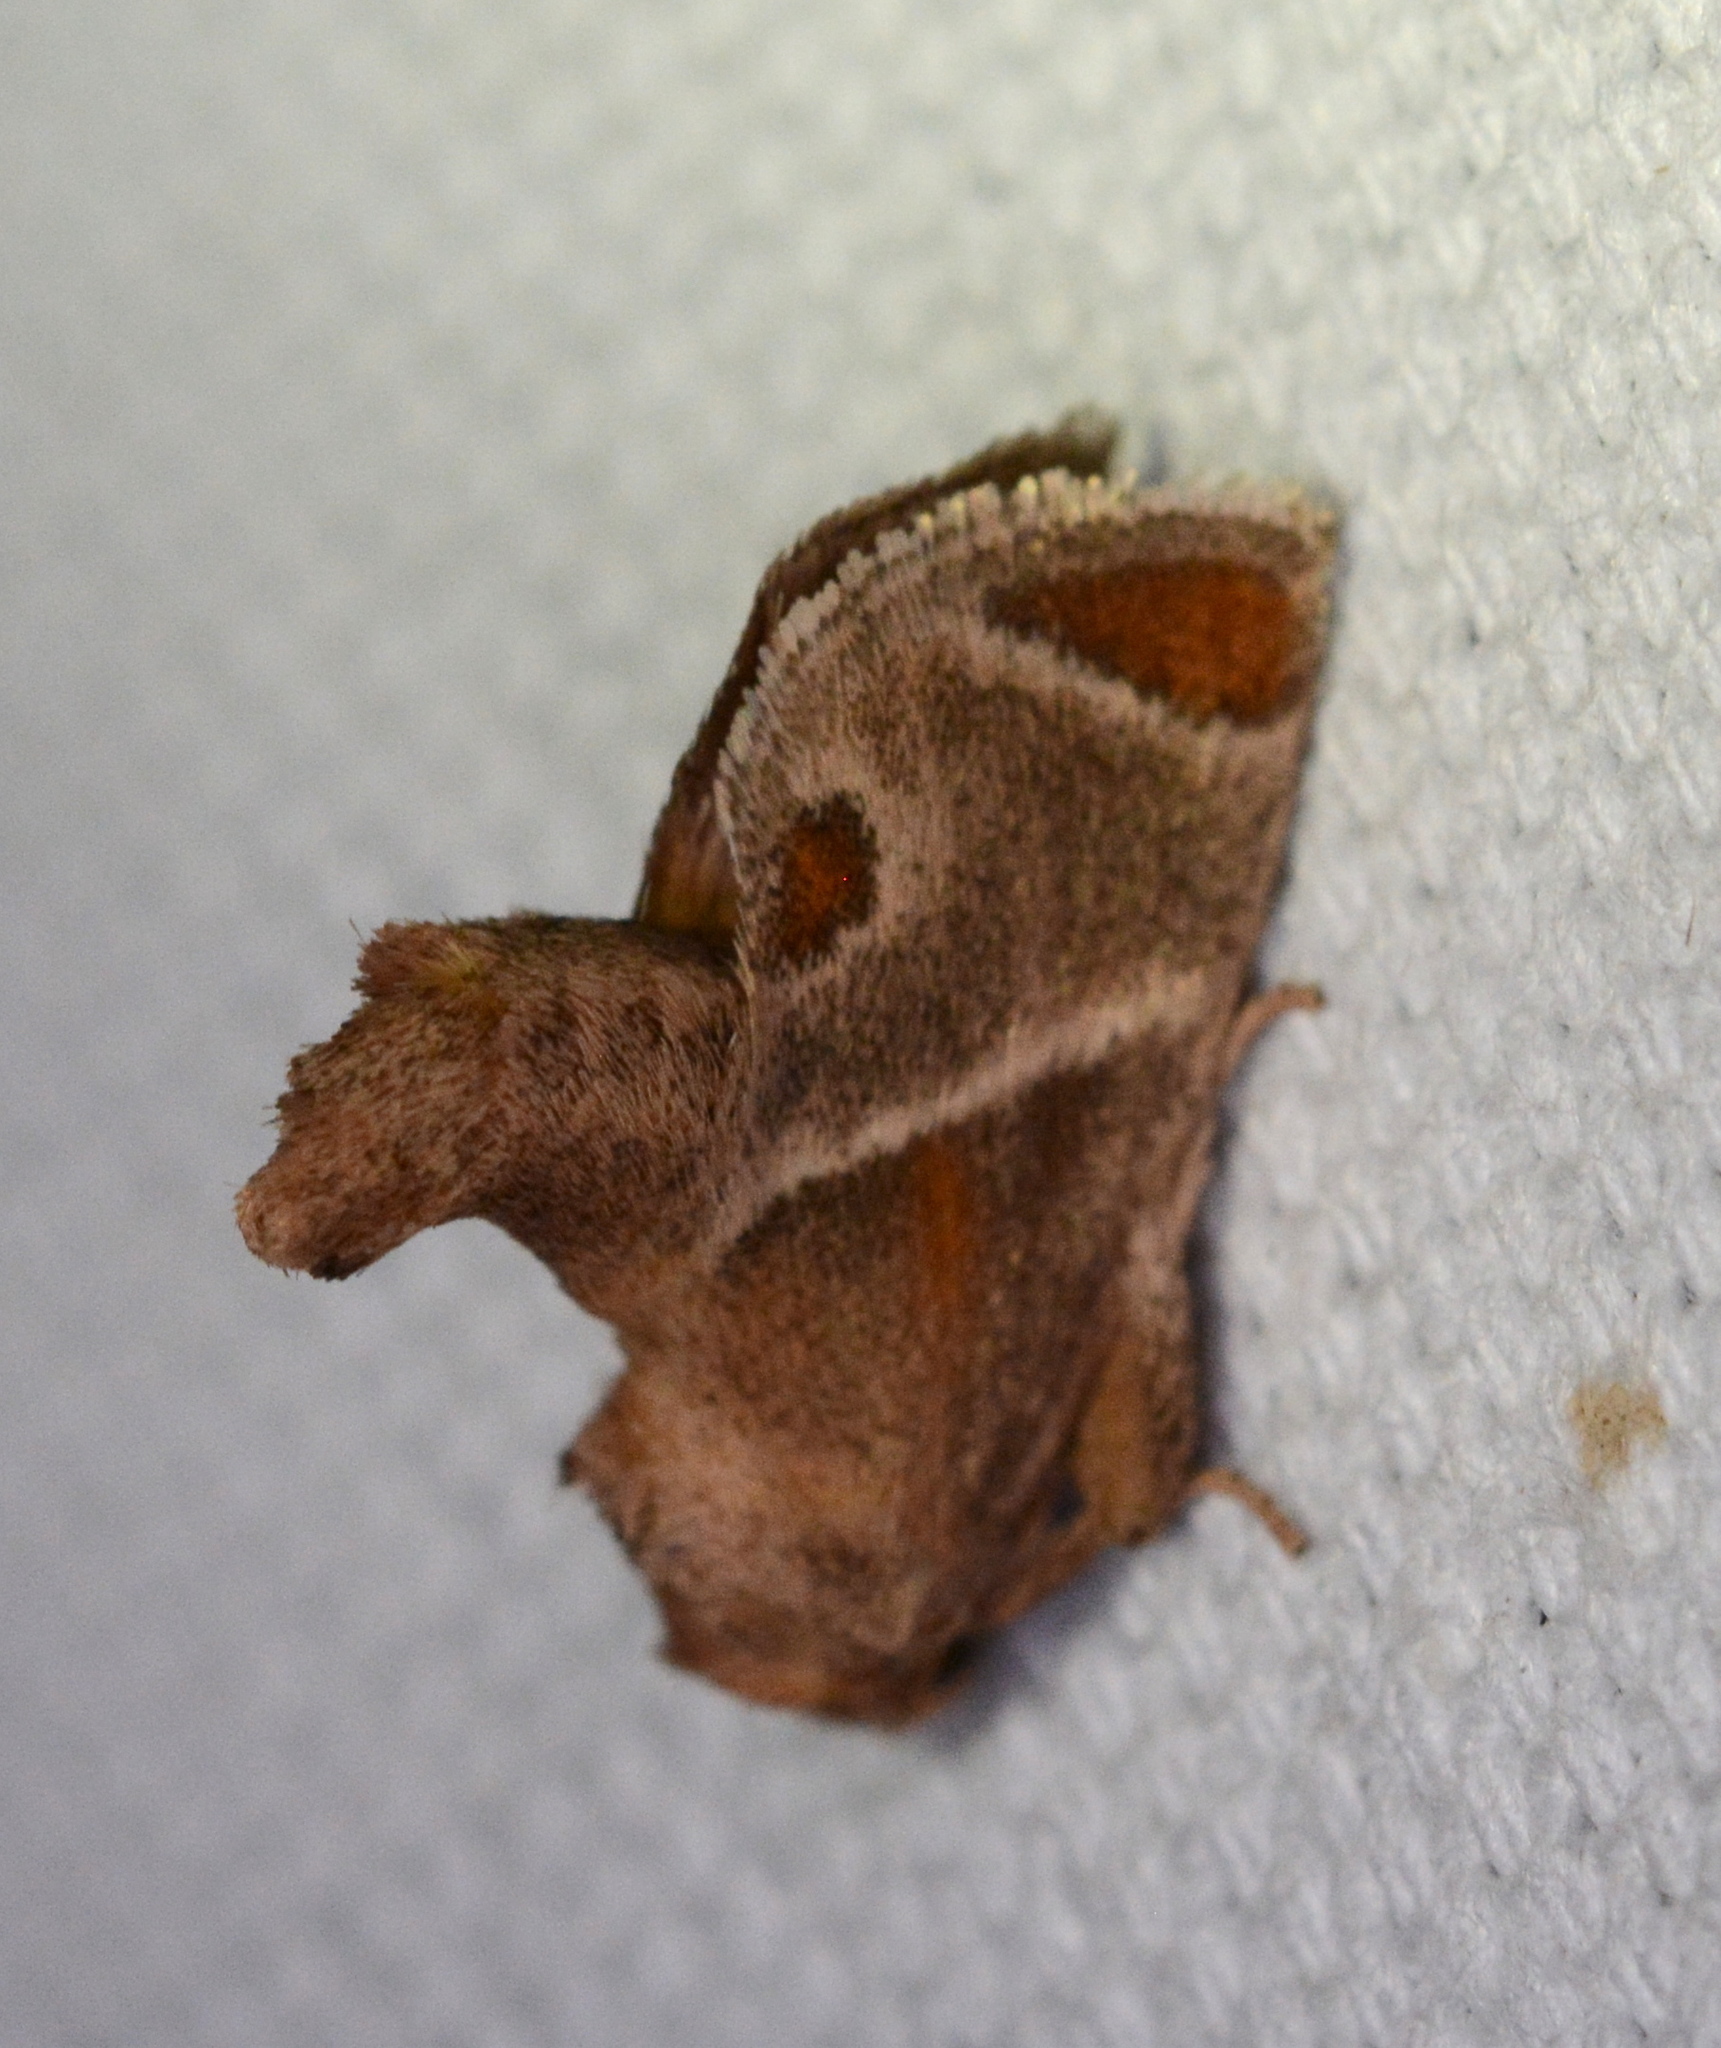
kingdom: Animalia
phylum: Arthropoda
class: Insecta
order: Lepidoptera
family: Limacodidae
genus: Apoda
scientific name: Apoda biguttata
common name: Shagreened slug moth
